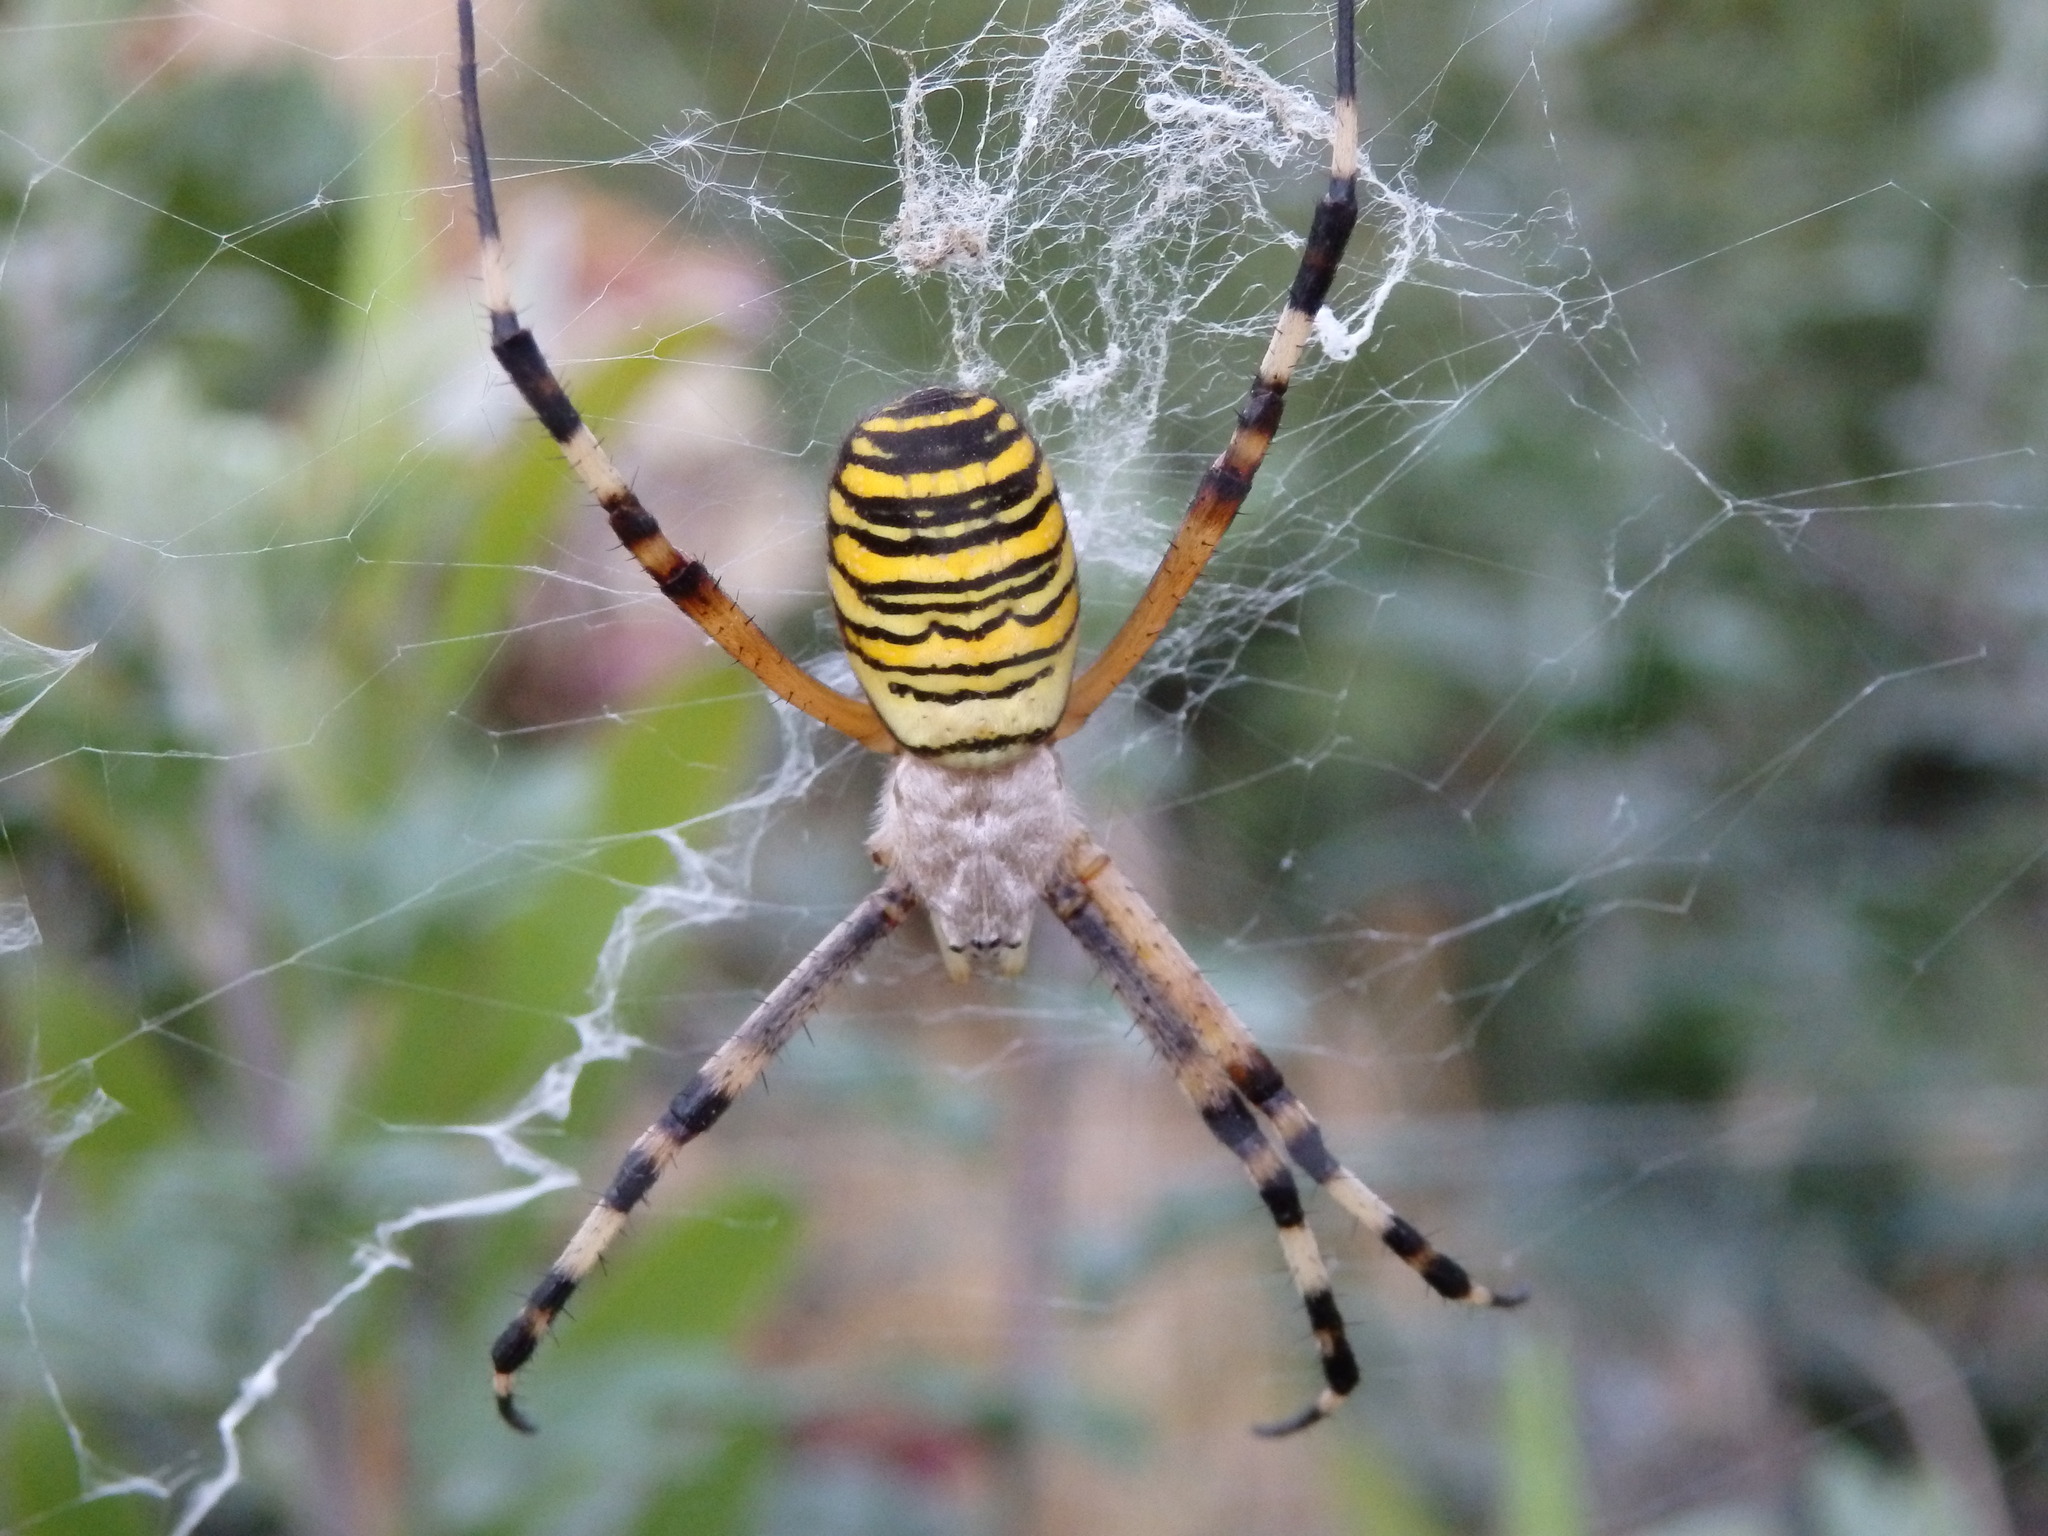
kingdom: Animalia
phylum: Arthropoda
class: Arachnida
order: Araneae
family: Araneidae
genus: Argiope
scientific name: Argiope bruennichi
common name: Wasp spider
